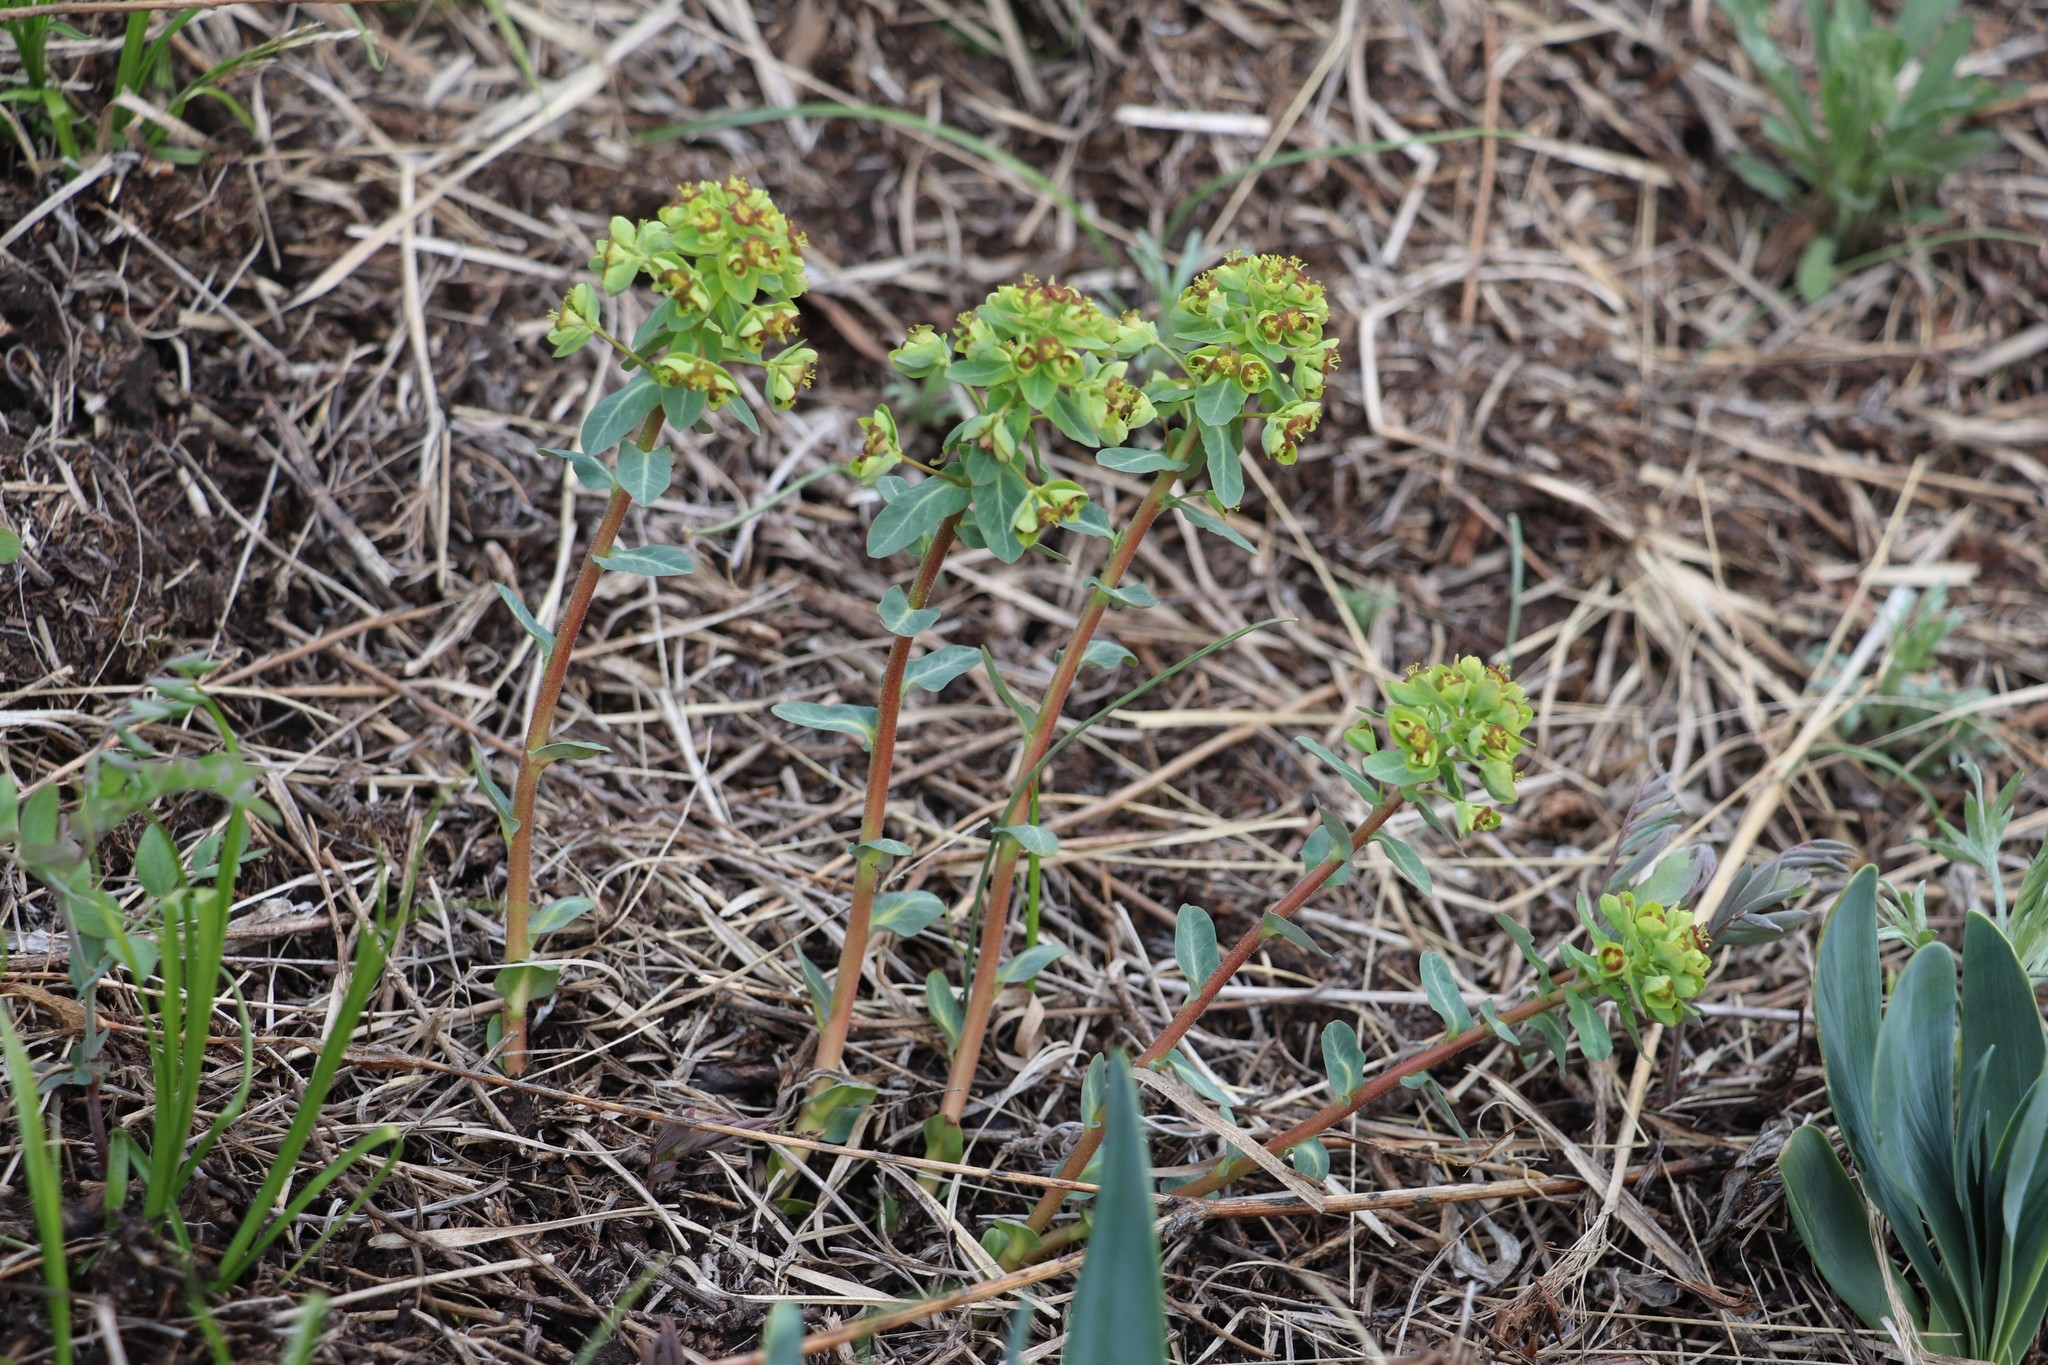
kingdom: Plantae
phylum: Tracheophyta
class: Magnoliopsida
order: Malpighiales
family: Euphorbiaceae
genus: Euphorbia
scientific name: Euphorbia alpina
